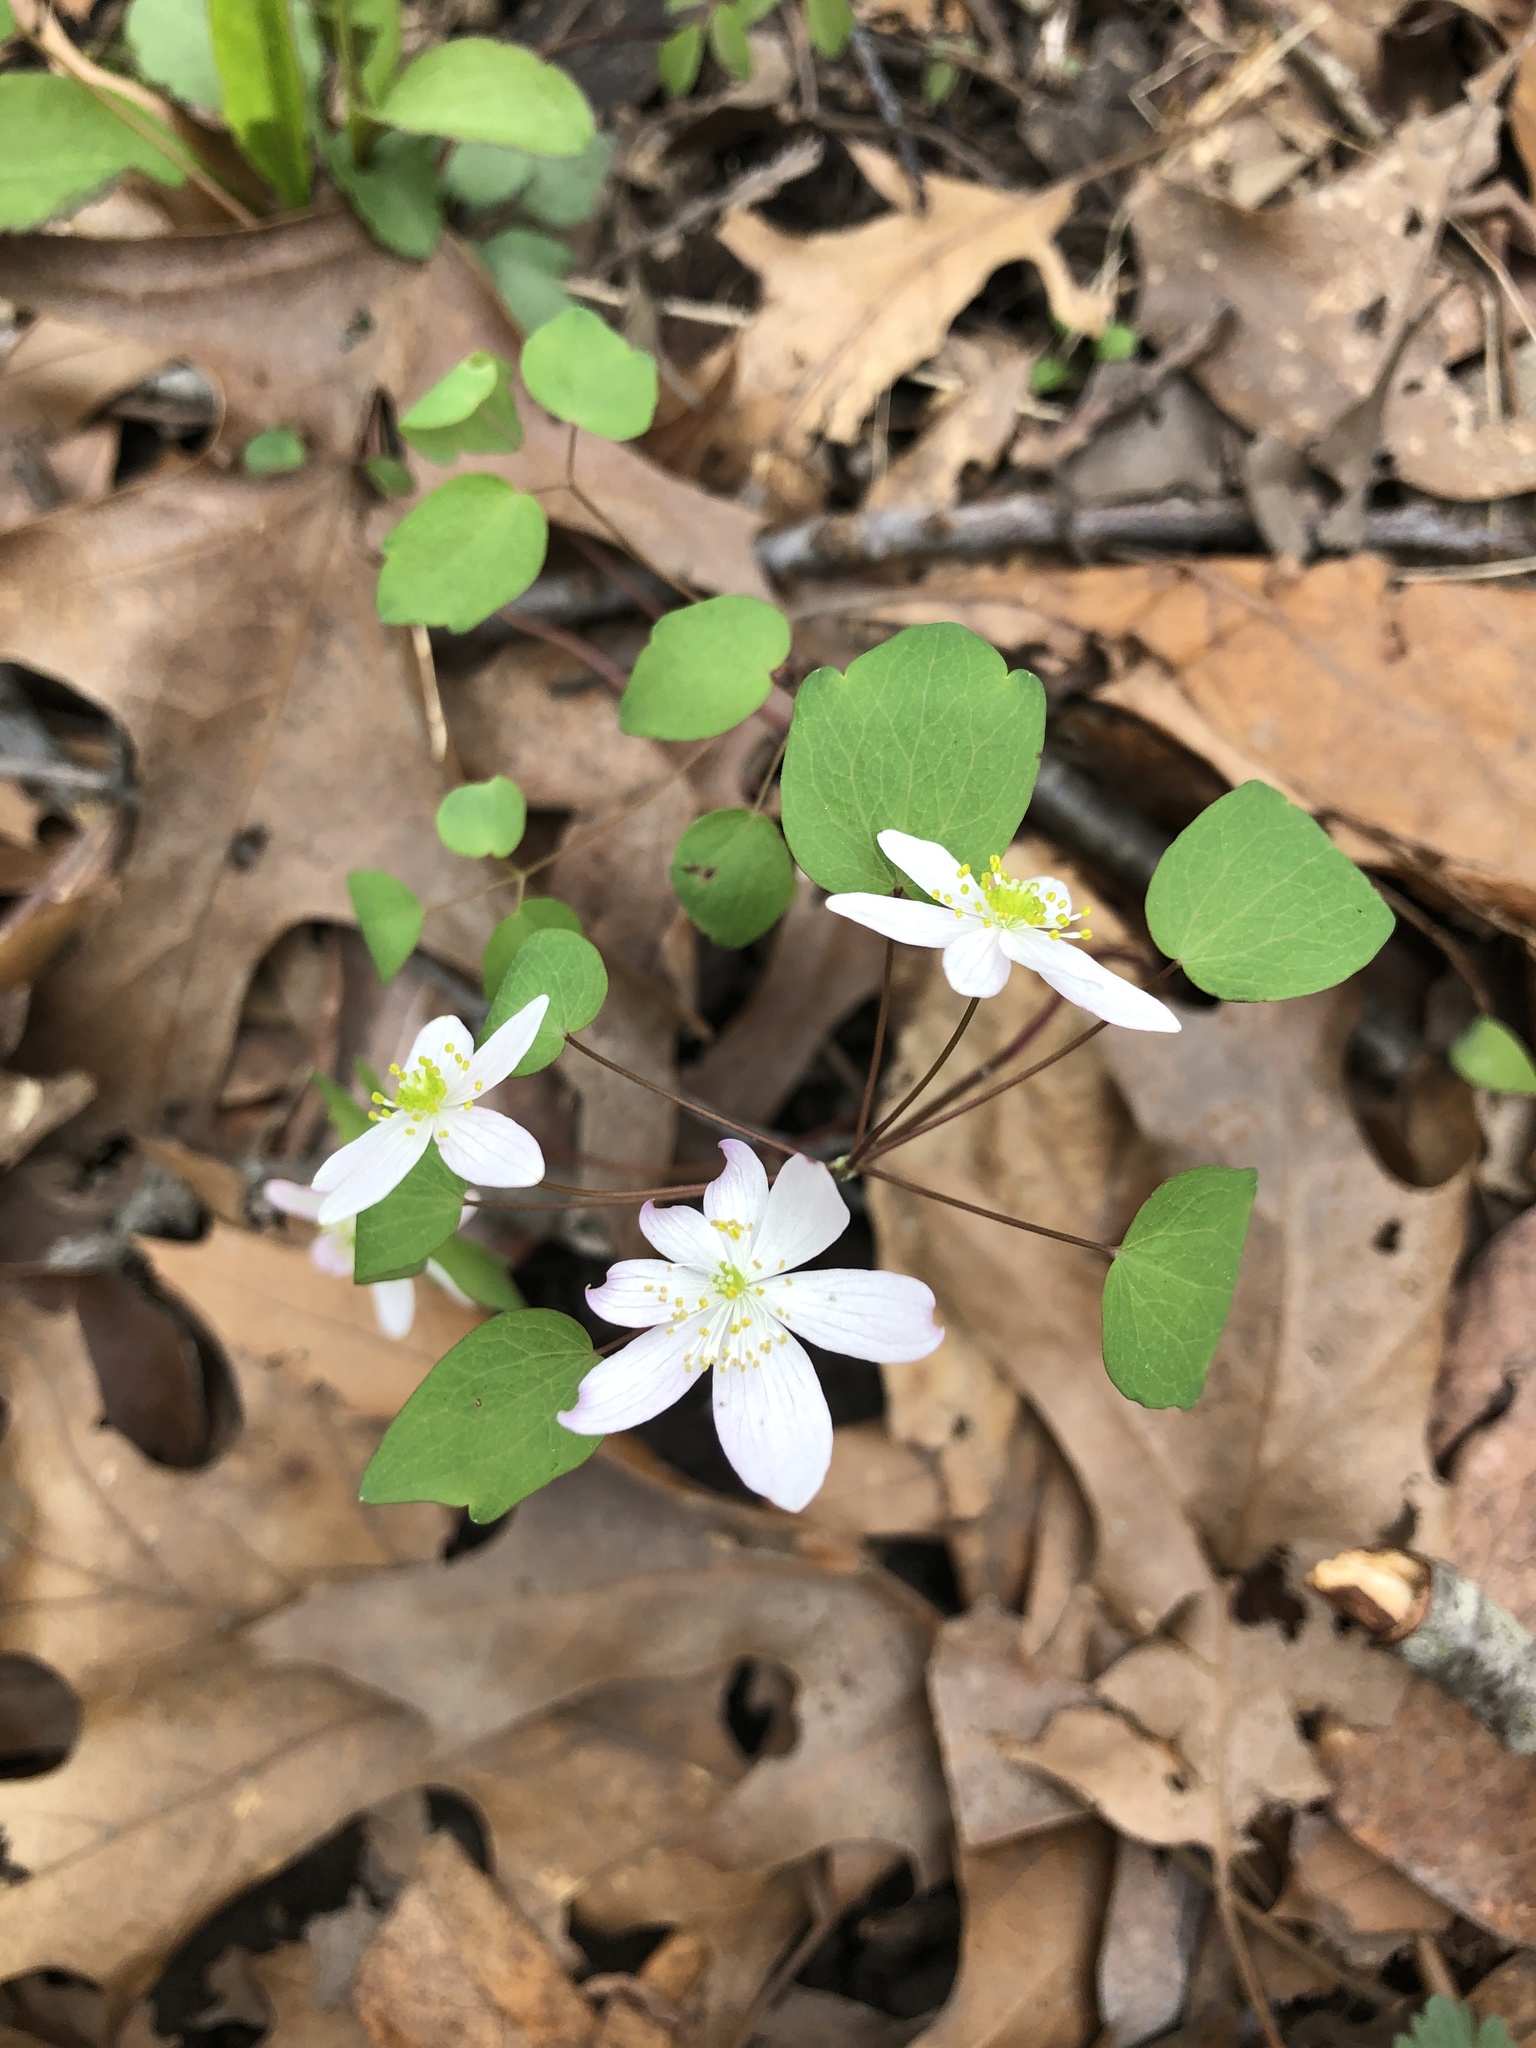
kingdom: Plantae
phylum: Tracheophyta
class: Magnoliopsida
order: Ranunculales
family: Ranunculaceae
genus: Thalictrum
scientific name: Thalictrum thalictroides
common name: Rue-anemone
